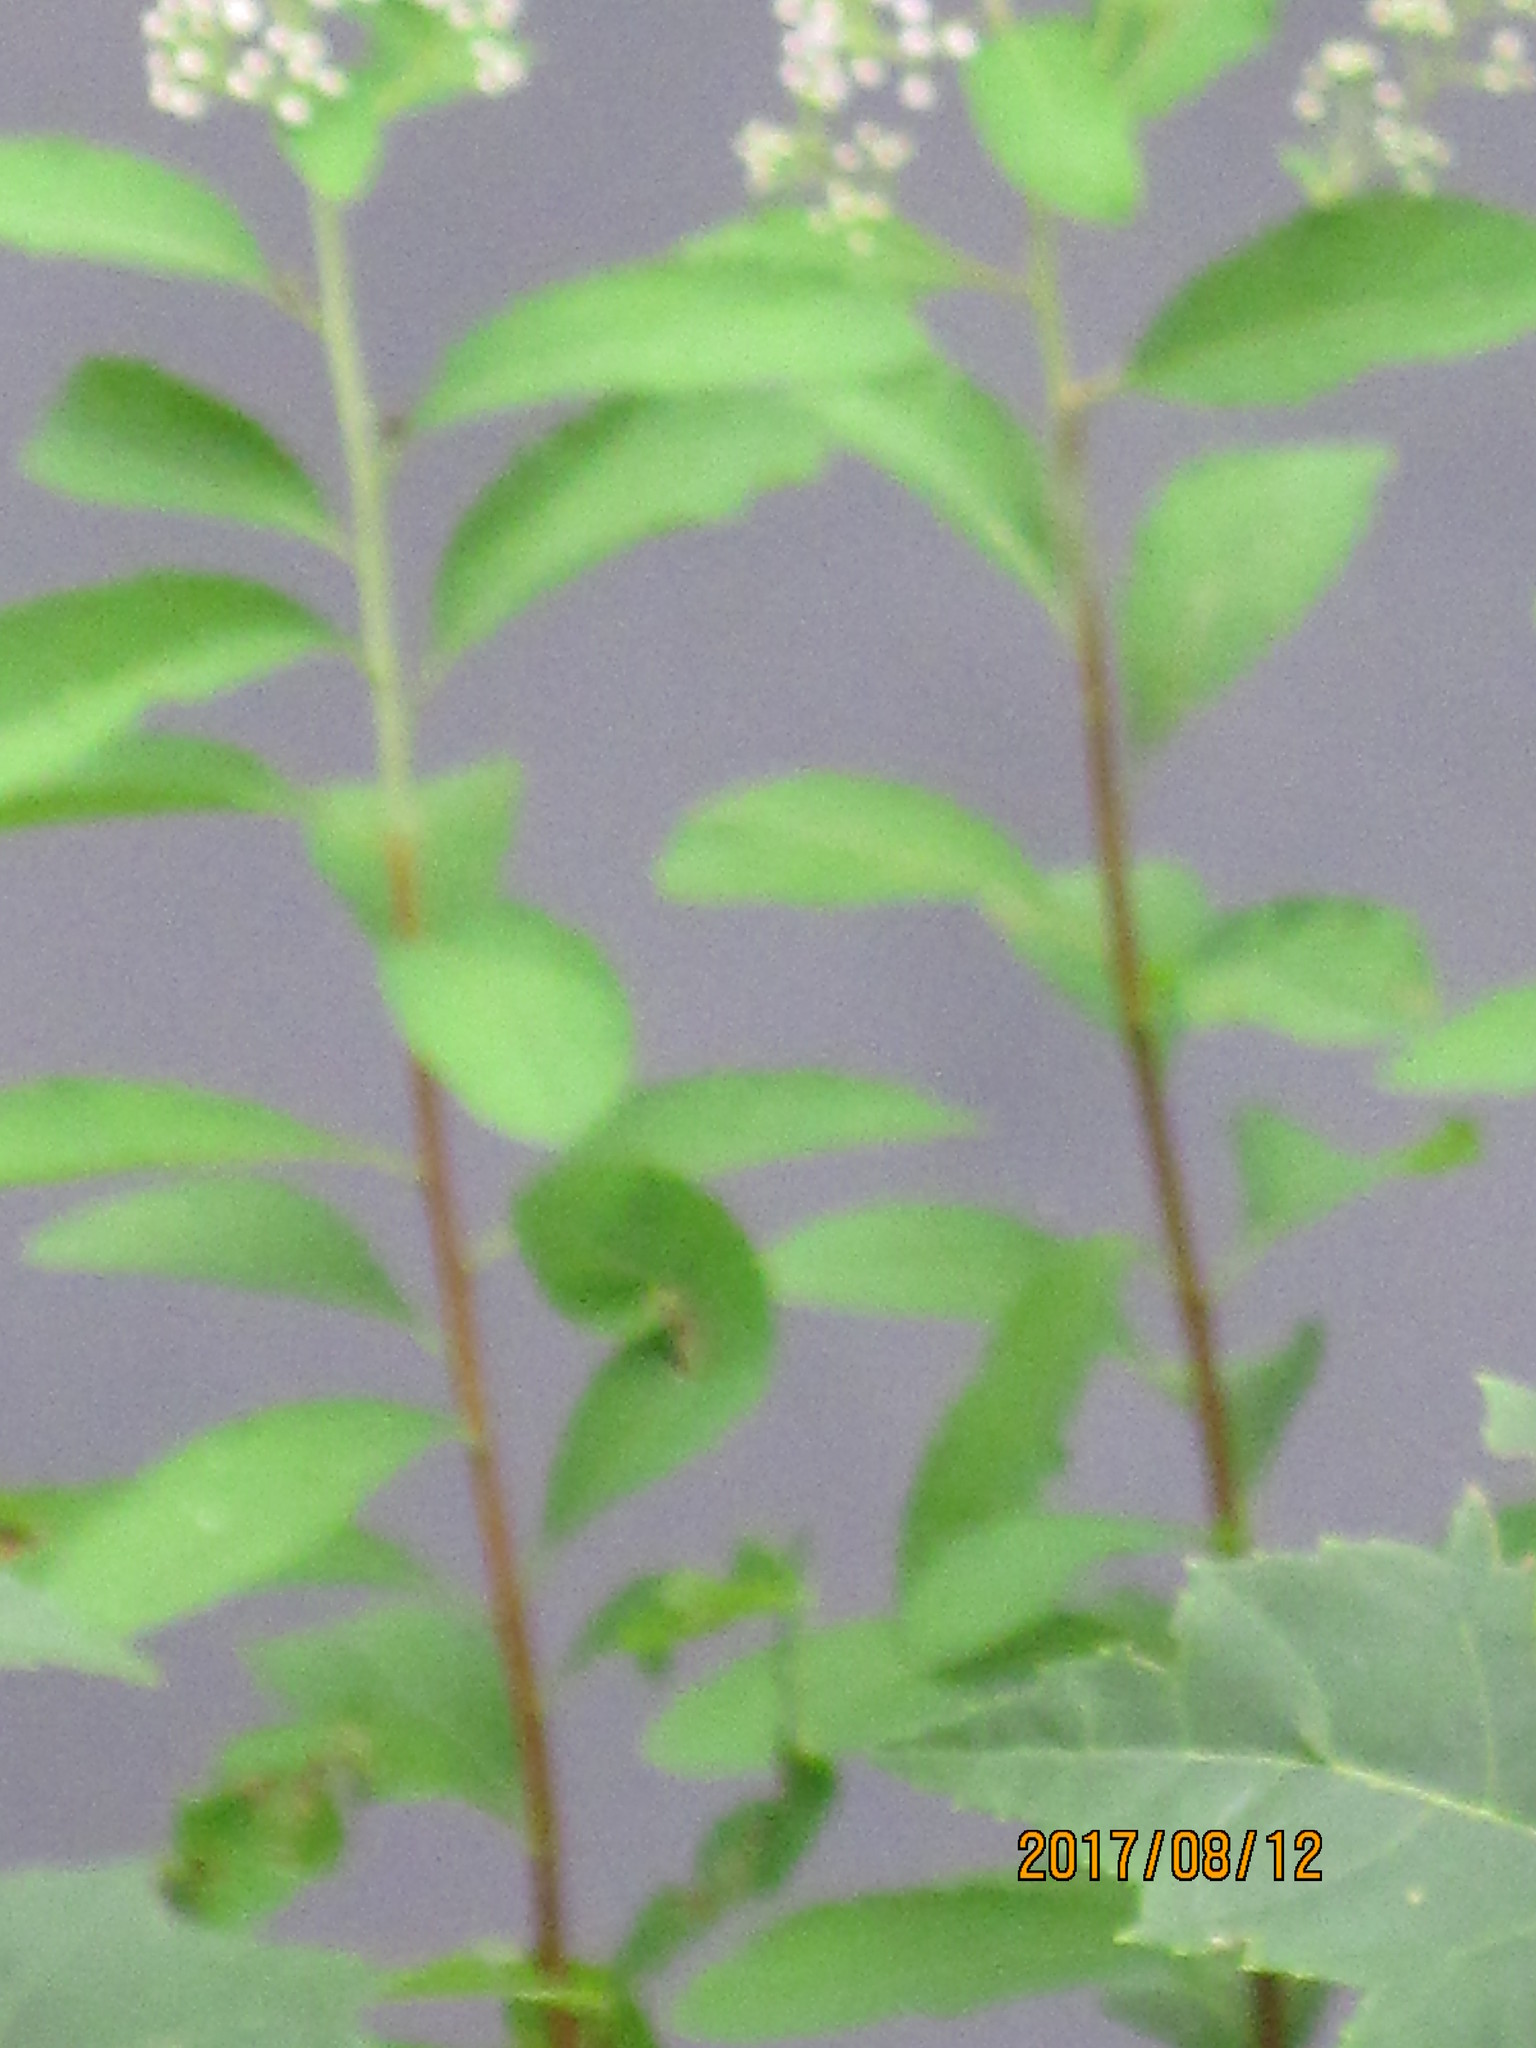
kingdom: Plantae
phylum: Tracheophyta
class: Magnoliopsida
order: Rosales
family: Rosaceae
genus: Spiraea
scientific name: Spiraea alba
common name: Pale bridewort
